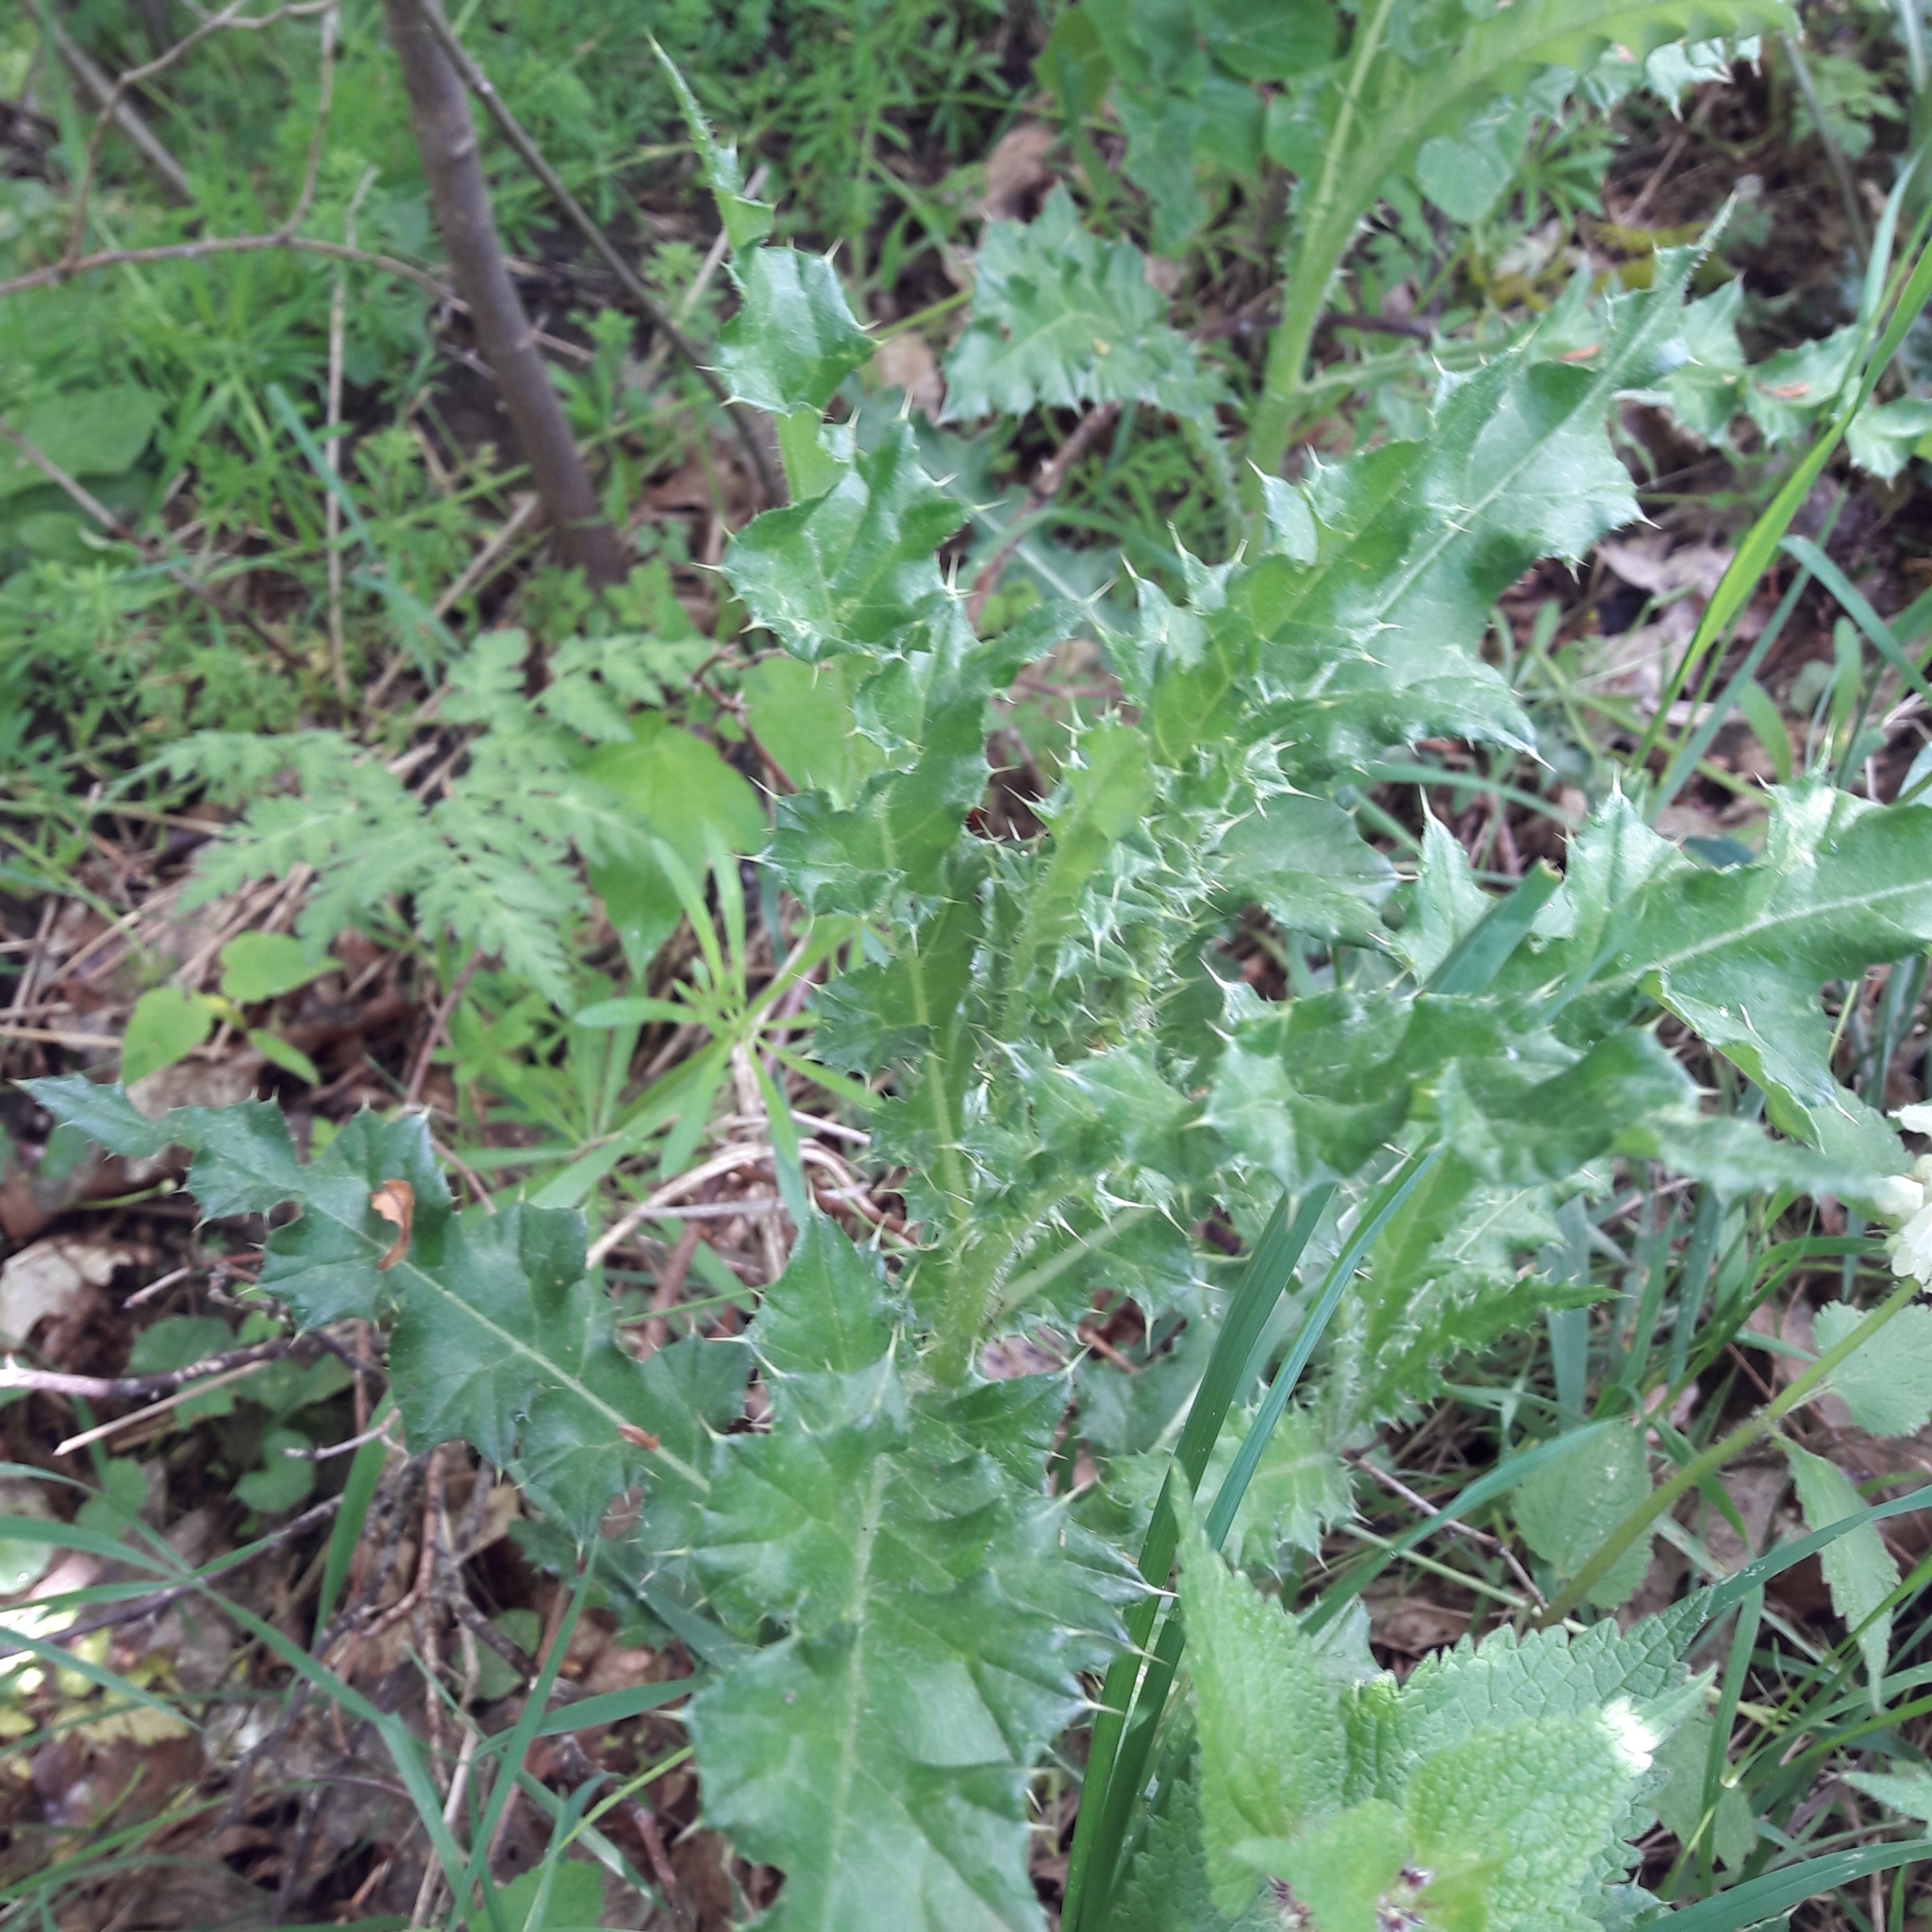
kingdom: Plantae
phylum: Tracheophyta
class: Magnoliopsida
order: Asterales
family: Asteraceae
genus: Cirsium
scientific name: Cirsium arvense
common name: Creeping thistle
